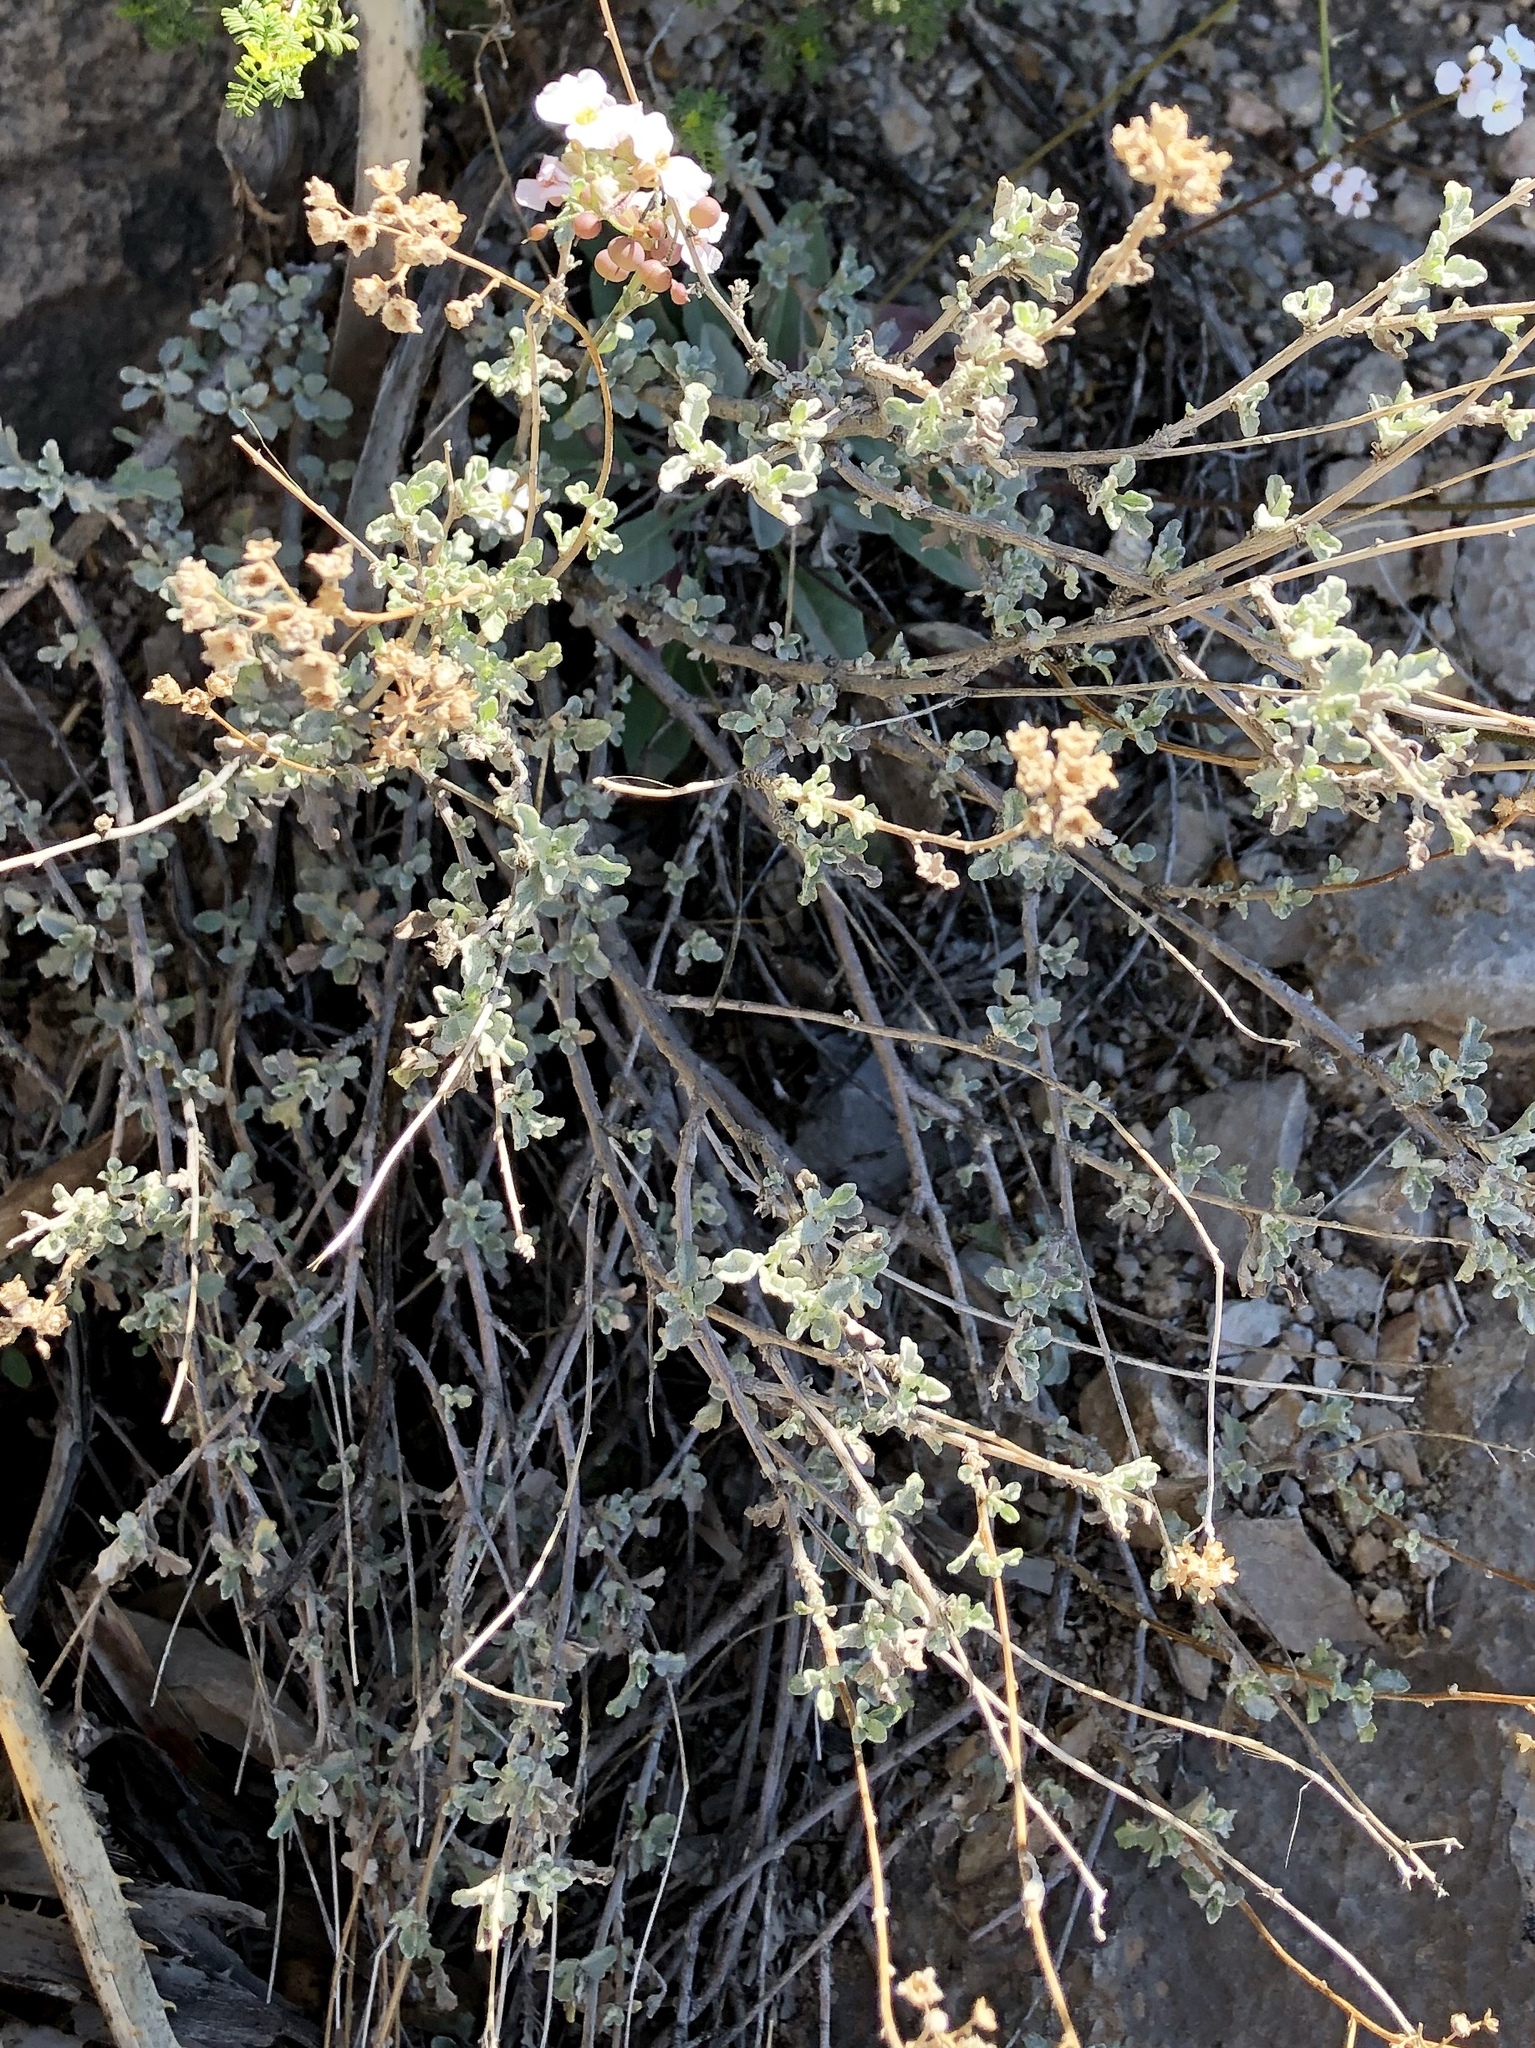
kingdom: Plantae
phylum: Tracheophyta
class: Magnoliopsida
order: Asterales
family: Asteraceae
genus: Parthenium
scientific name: Parthenium incanum
